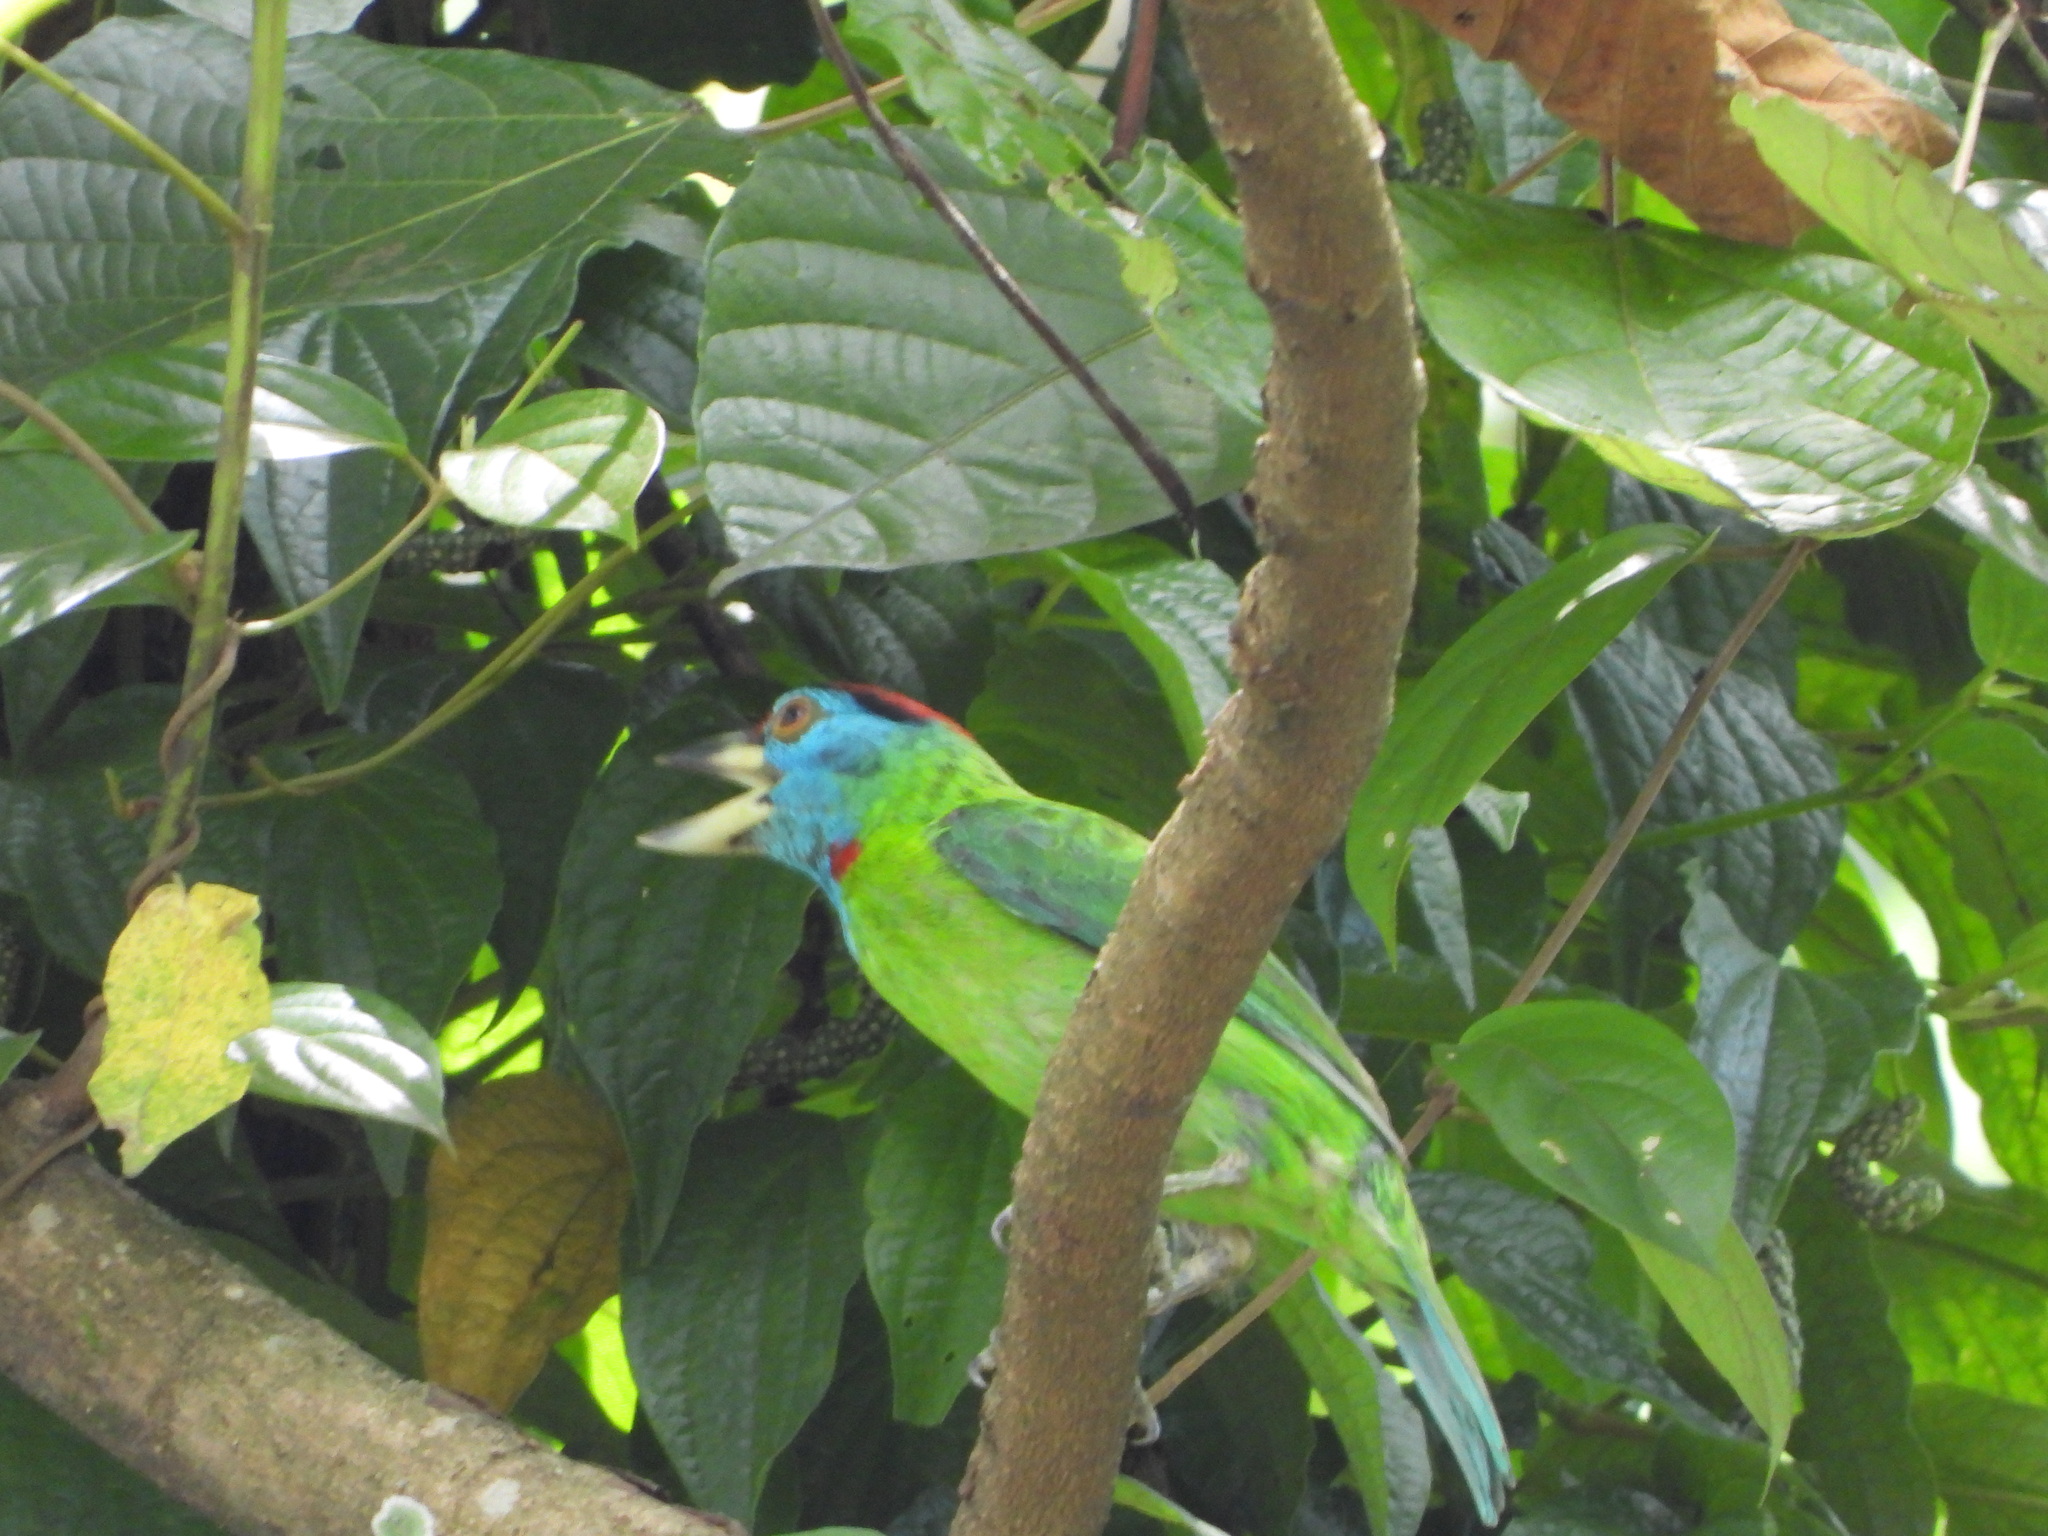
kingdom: Animalia
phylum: Chordata
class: Aves
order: Piciformes
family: Megalaimidae
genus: Psilopogon
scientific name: Psilopogon asiaticus
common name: Blue-throated barbet
